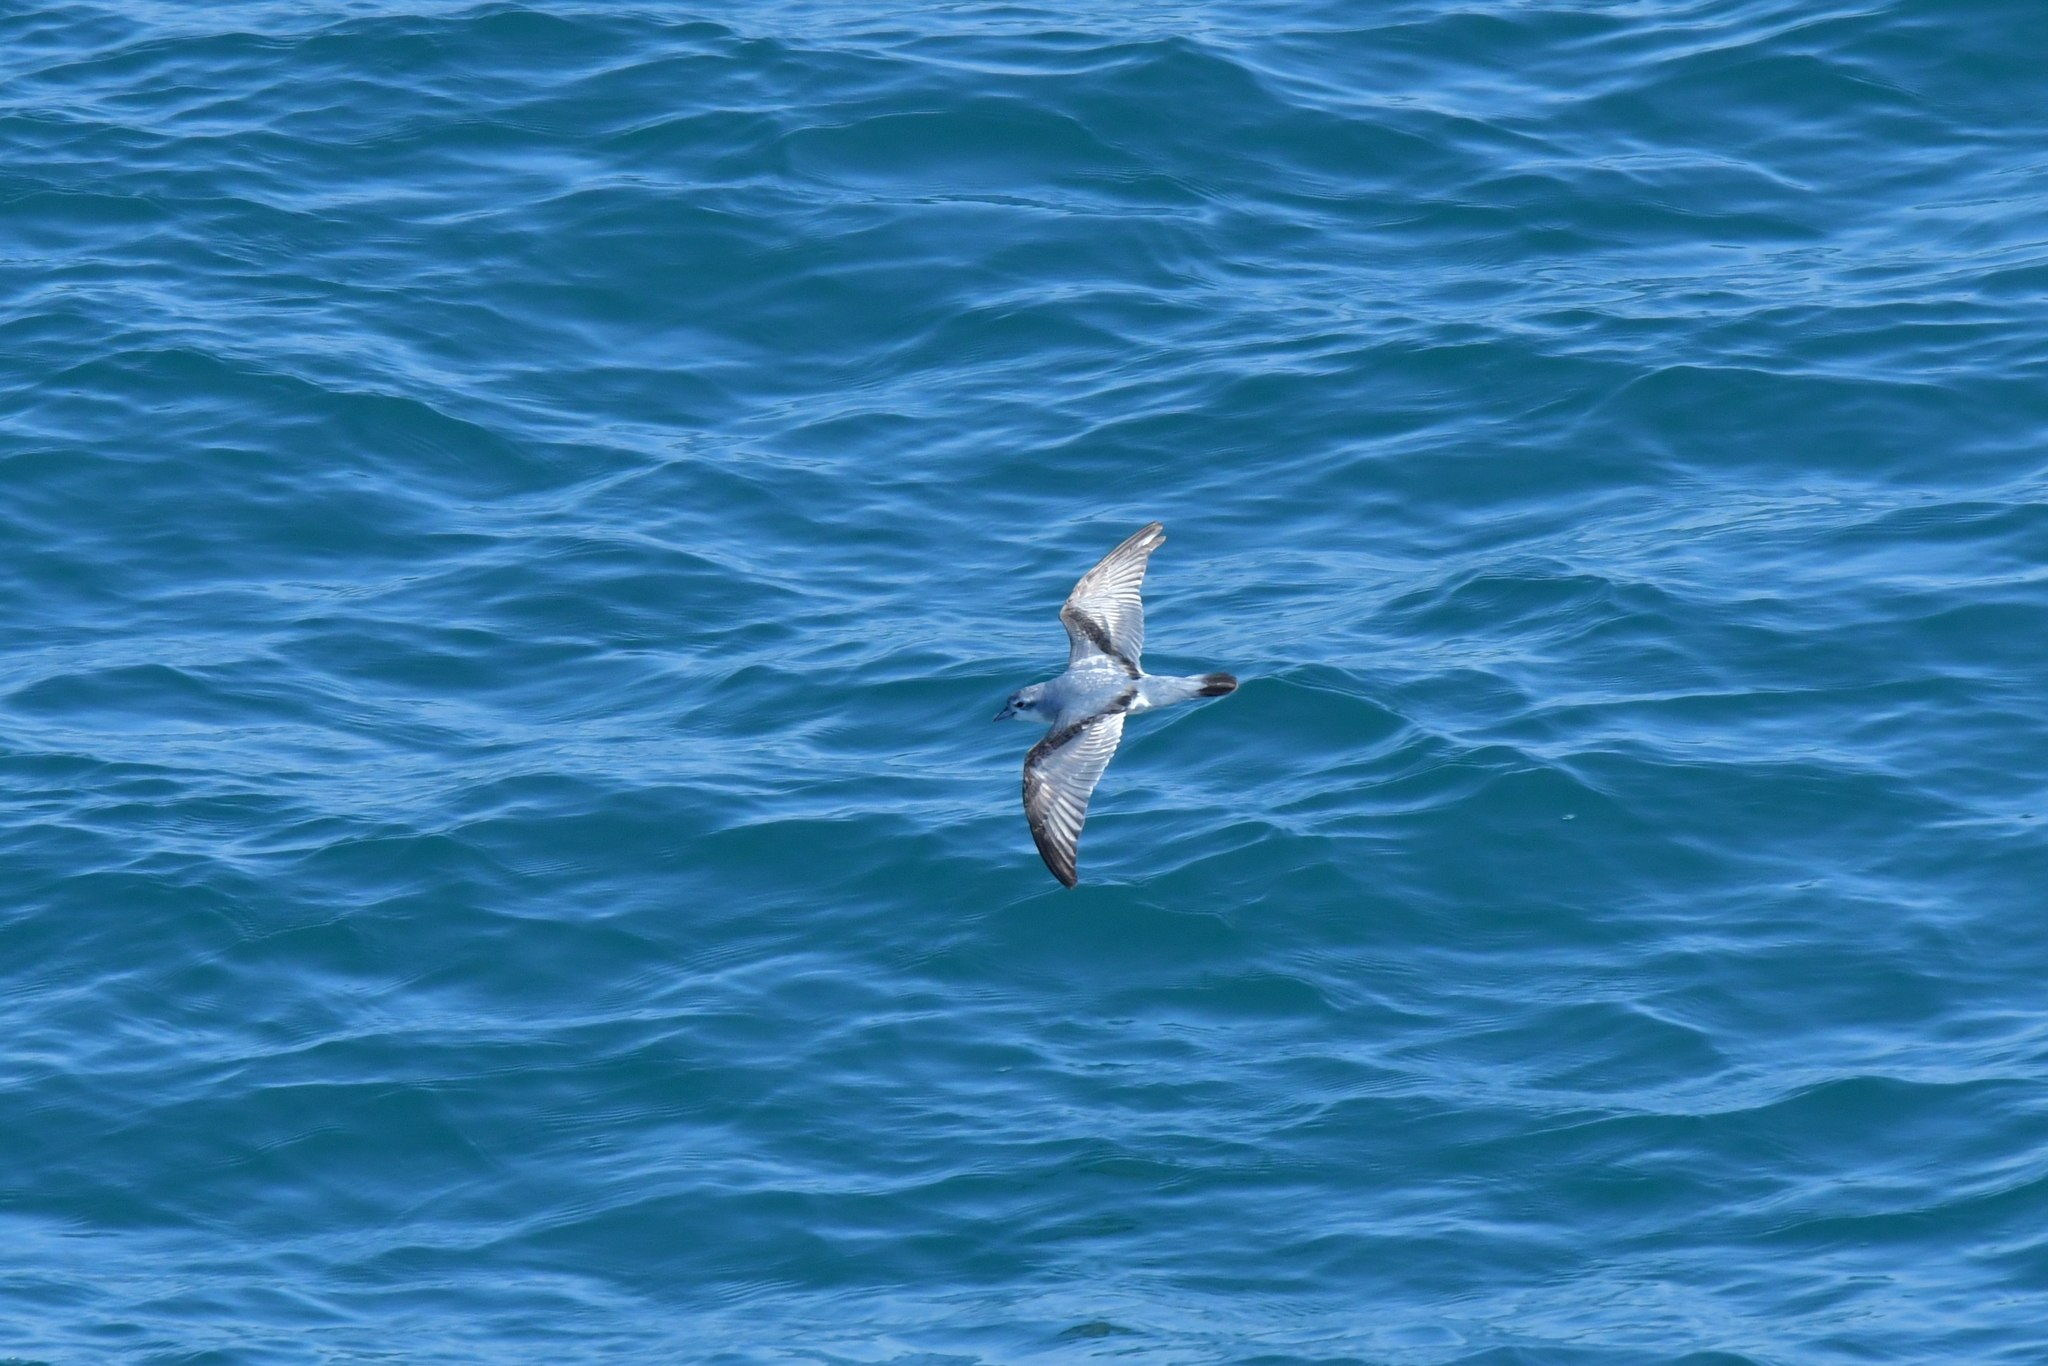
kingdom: Animalia
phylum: Chordata
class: Aves
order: Procellariiformes
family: Procellariidae
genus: Pachyptila
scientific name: Pachyptila turtur
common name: Fairy prion
